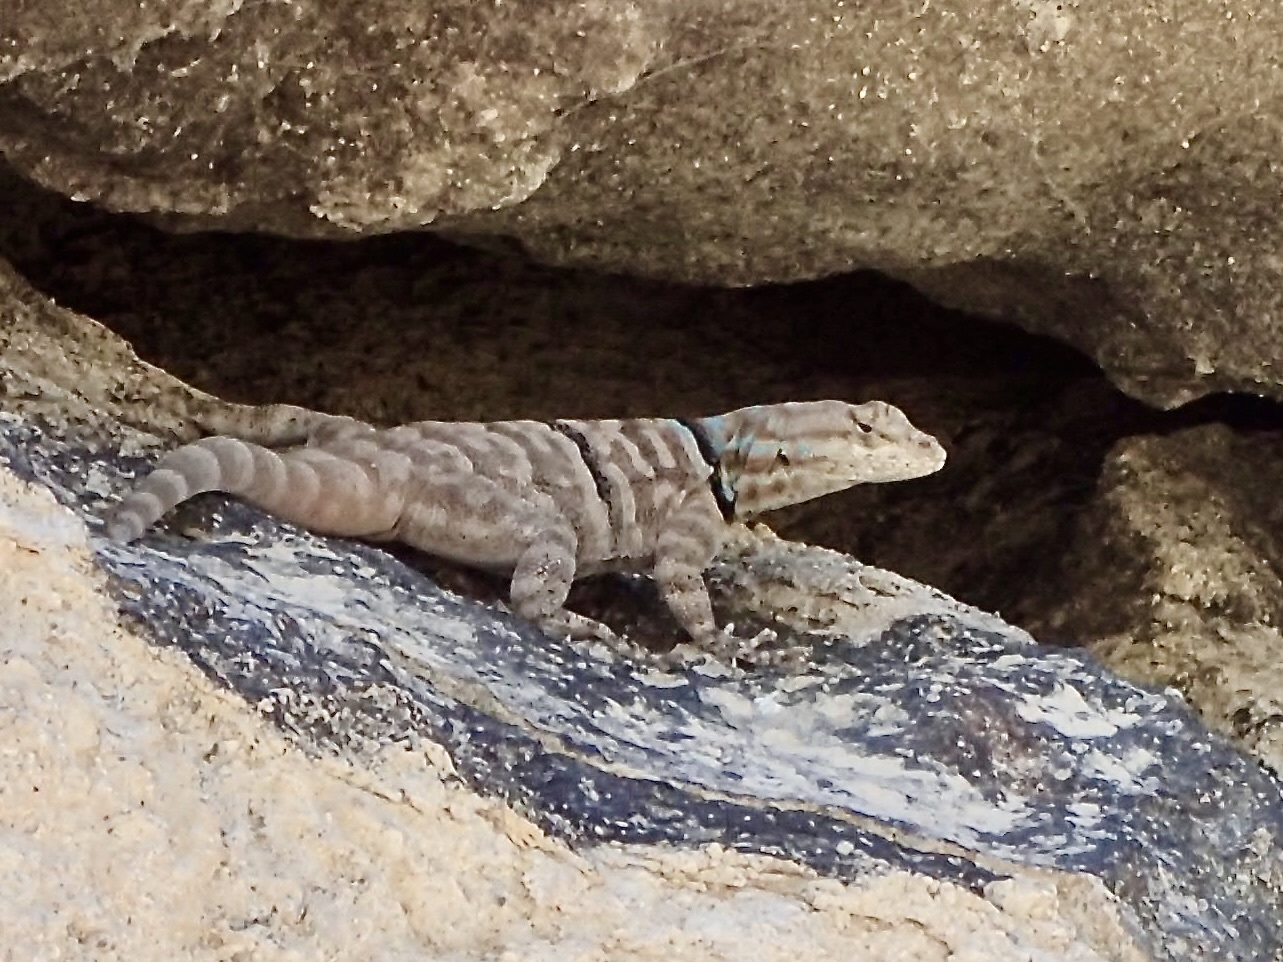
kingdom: Animalia
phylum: Chordata
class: Squamata
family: Phrynosomatidae
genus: Petrosaurus
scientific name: Petrosaurus repens
